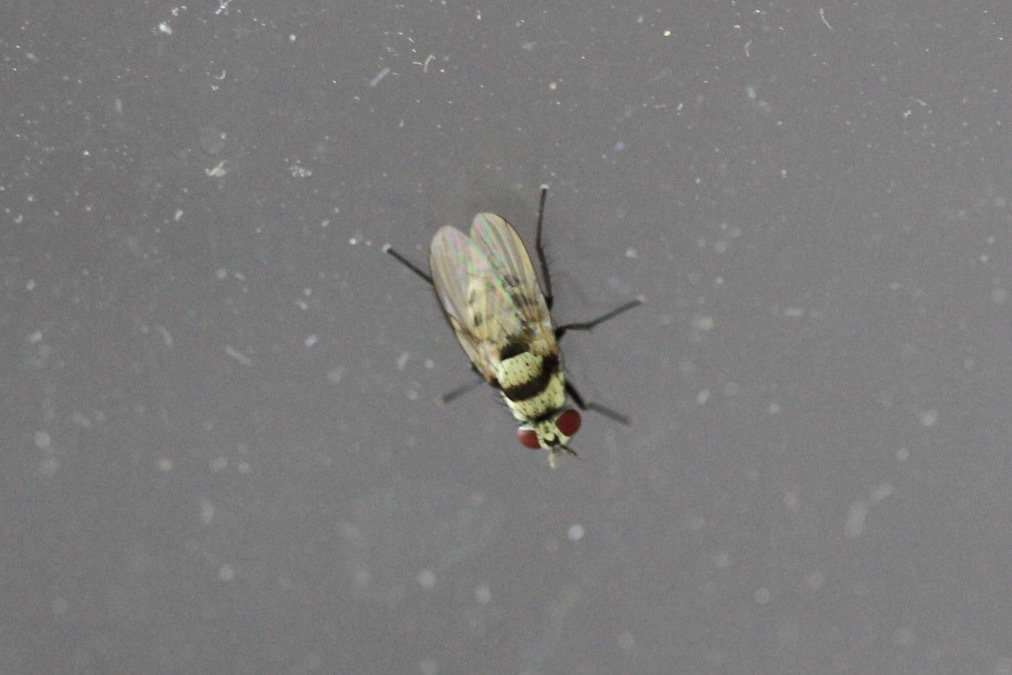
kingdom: Animalia
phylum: Arthropoda
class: Insecta
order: Diptera
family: Anthomyiidae
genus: Anthomyia
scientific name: Anthomyia illocata
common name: Fly
